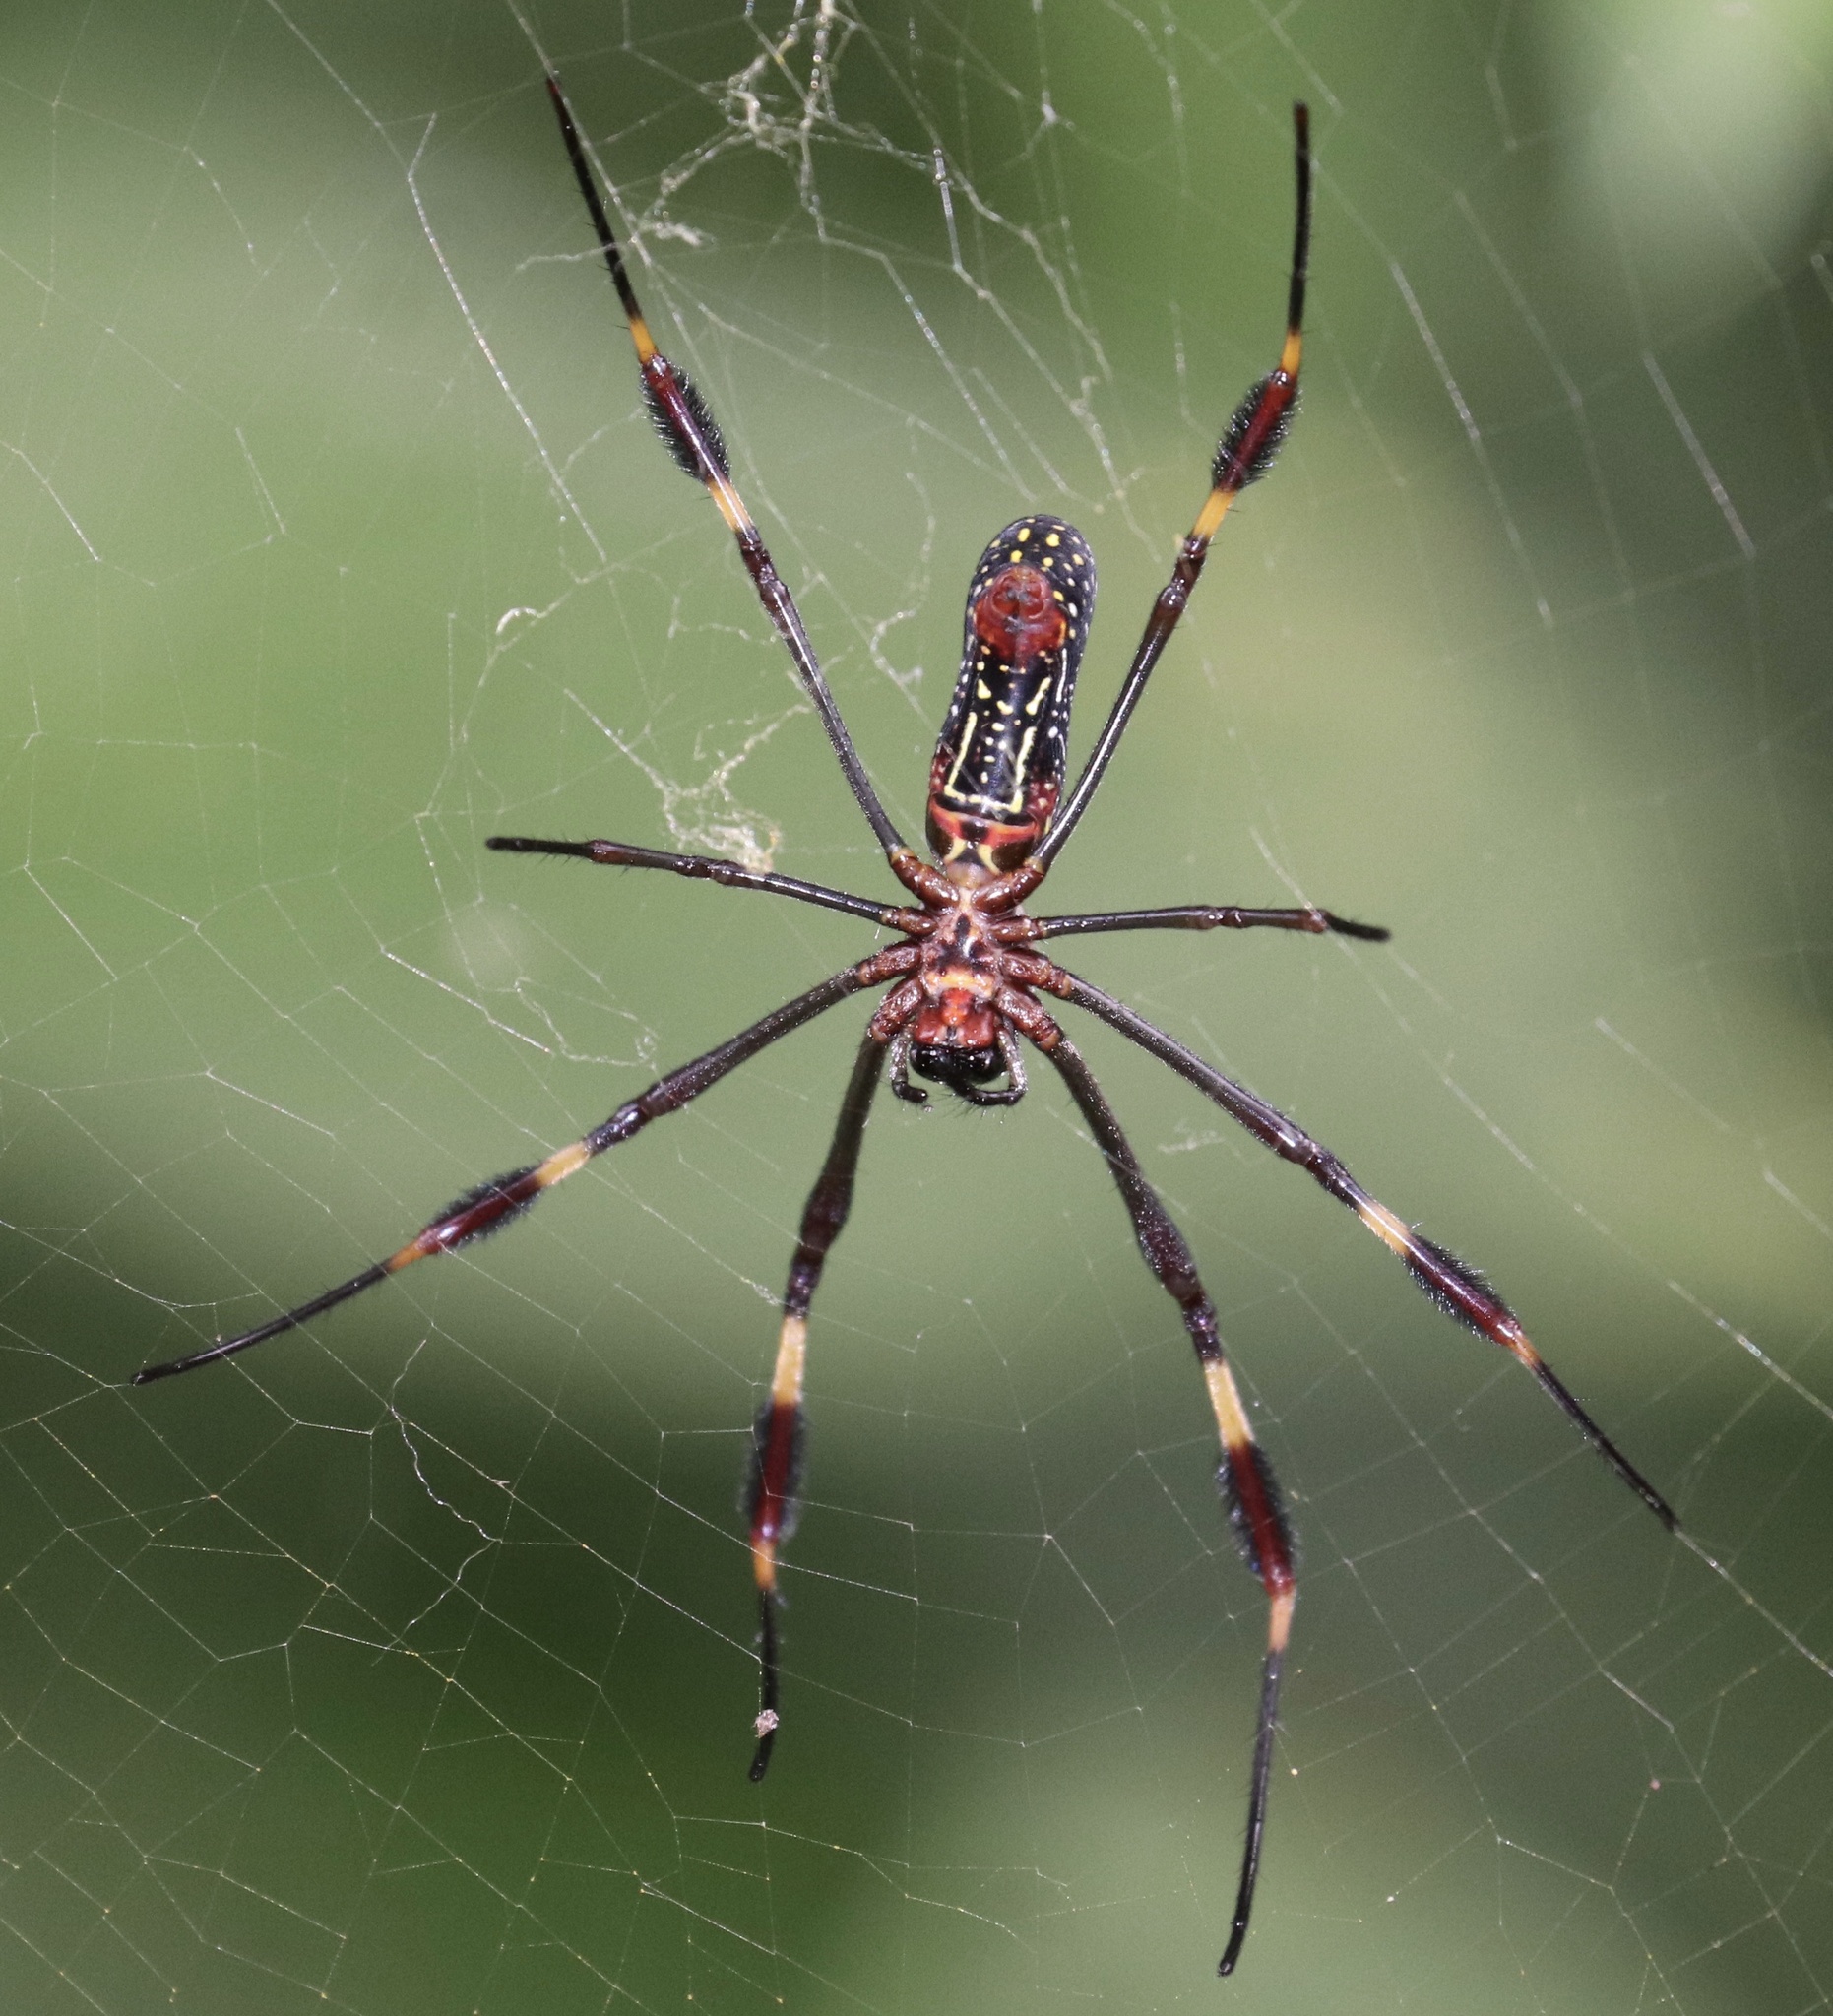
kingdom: Animalia
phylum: Arthropoda
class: Arachnida
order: Araneae
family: Araneidae
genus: Trichonephila
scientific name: Trichonephila clavipes
